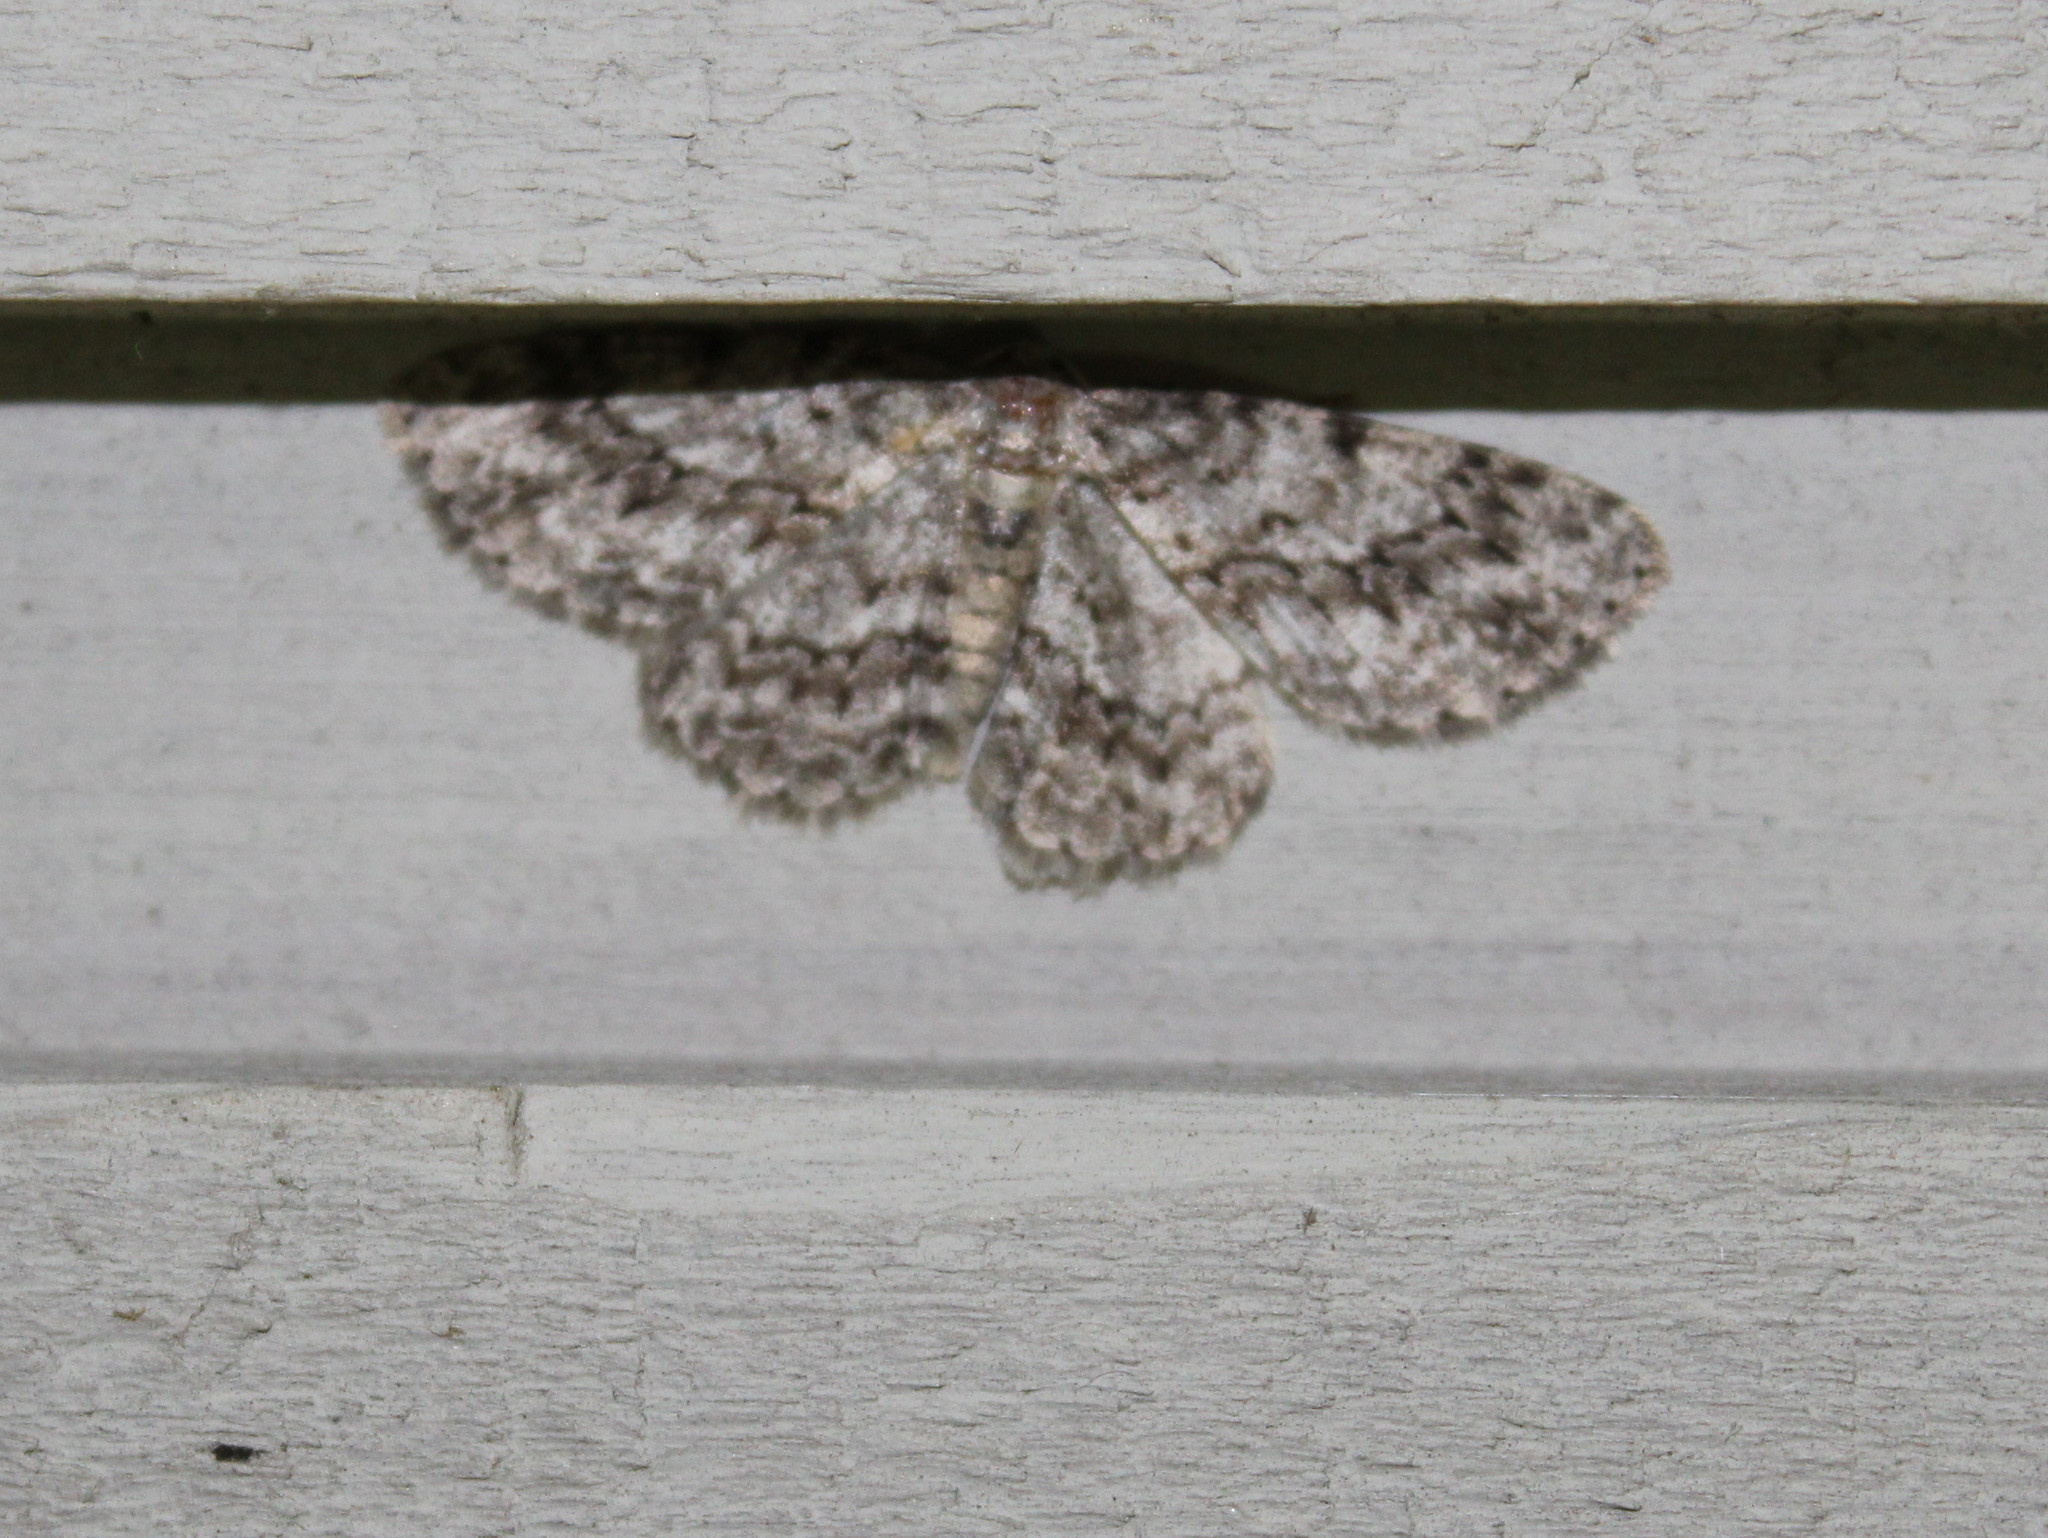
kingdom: Animalia
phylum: Arthropoda
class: Insecta
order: Lepidoptera
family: Geometridae
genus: Ectropis
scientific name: Ectropis crepuscularia
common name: Engrailed
